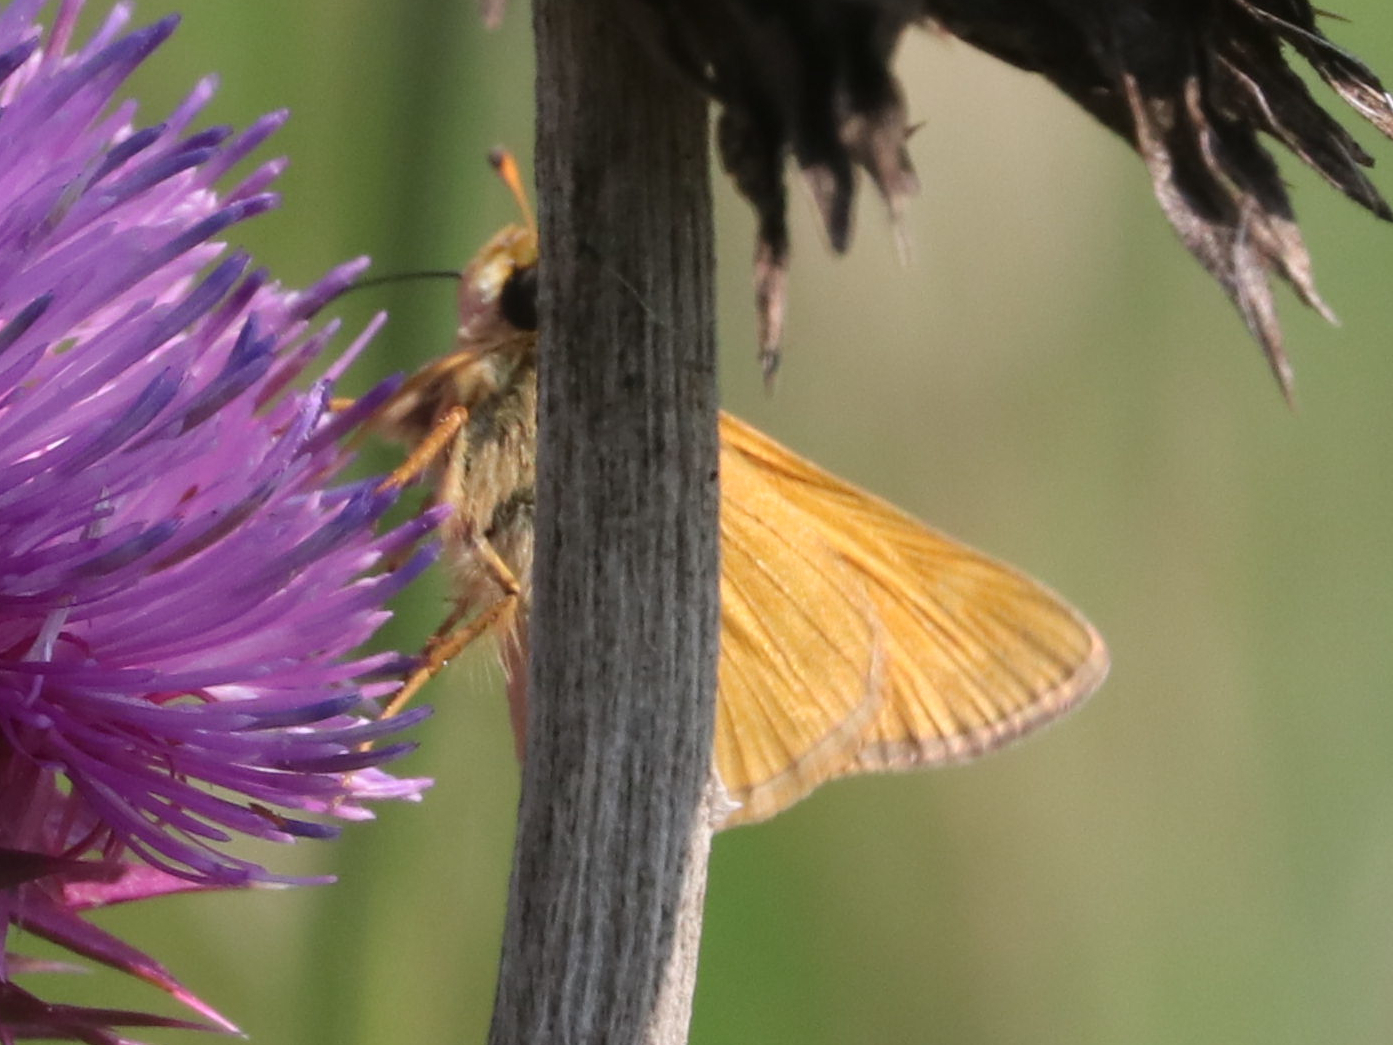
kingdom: Animalia
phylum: Arthropoda
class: Insecta
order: Lepidoptera
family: Hesperiidae
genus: Atalopedes
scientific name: Atalopedes
